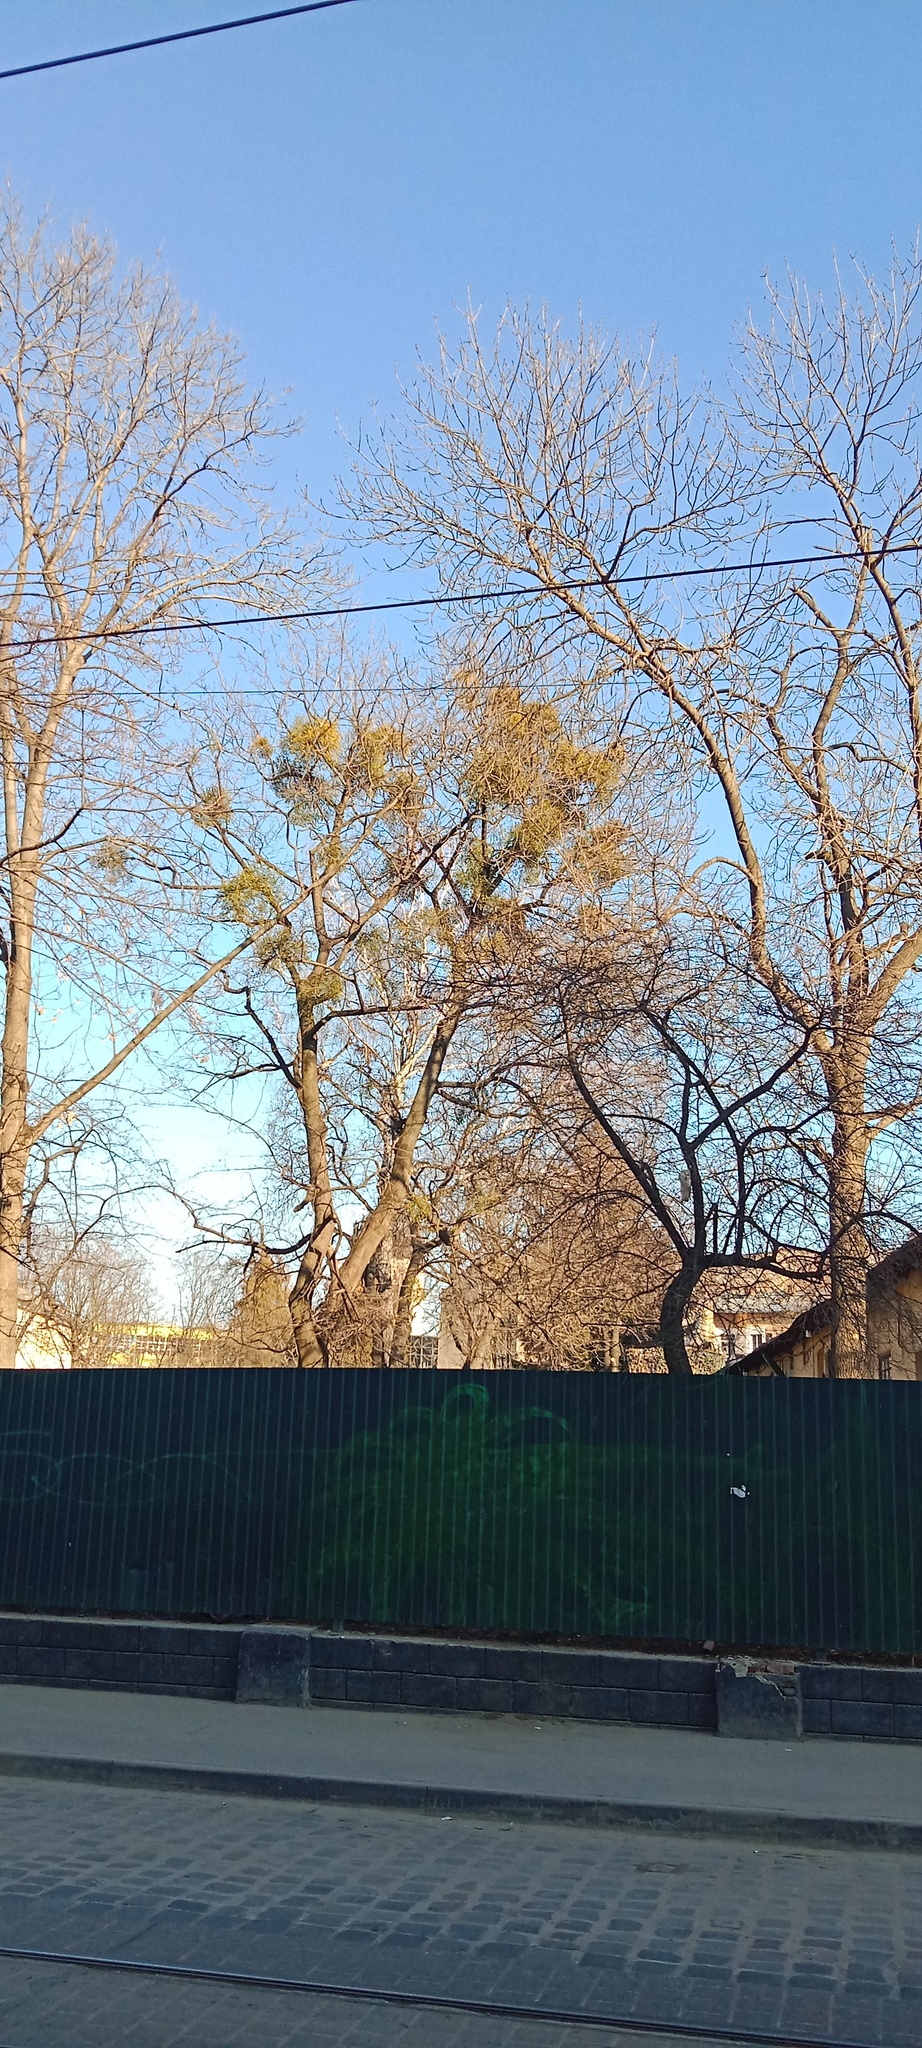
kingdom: Plantae
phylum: Tracheophyta
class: Magnoliopsida
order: Santalales
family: Viscaceae
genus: Viscum
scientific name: Viscum album
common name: Mistletoe
